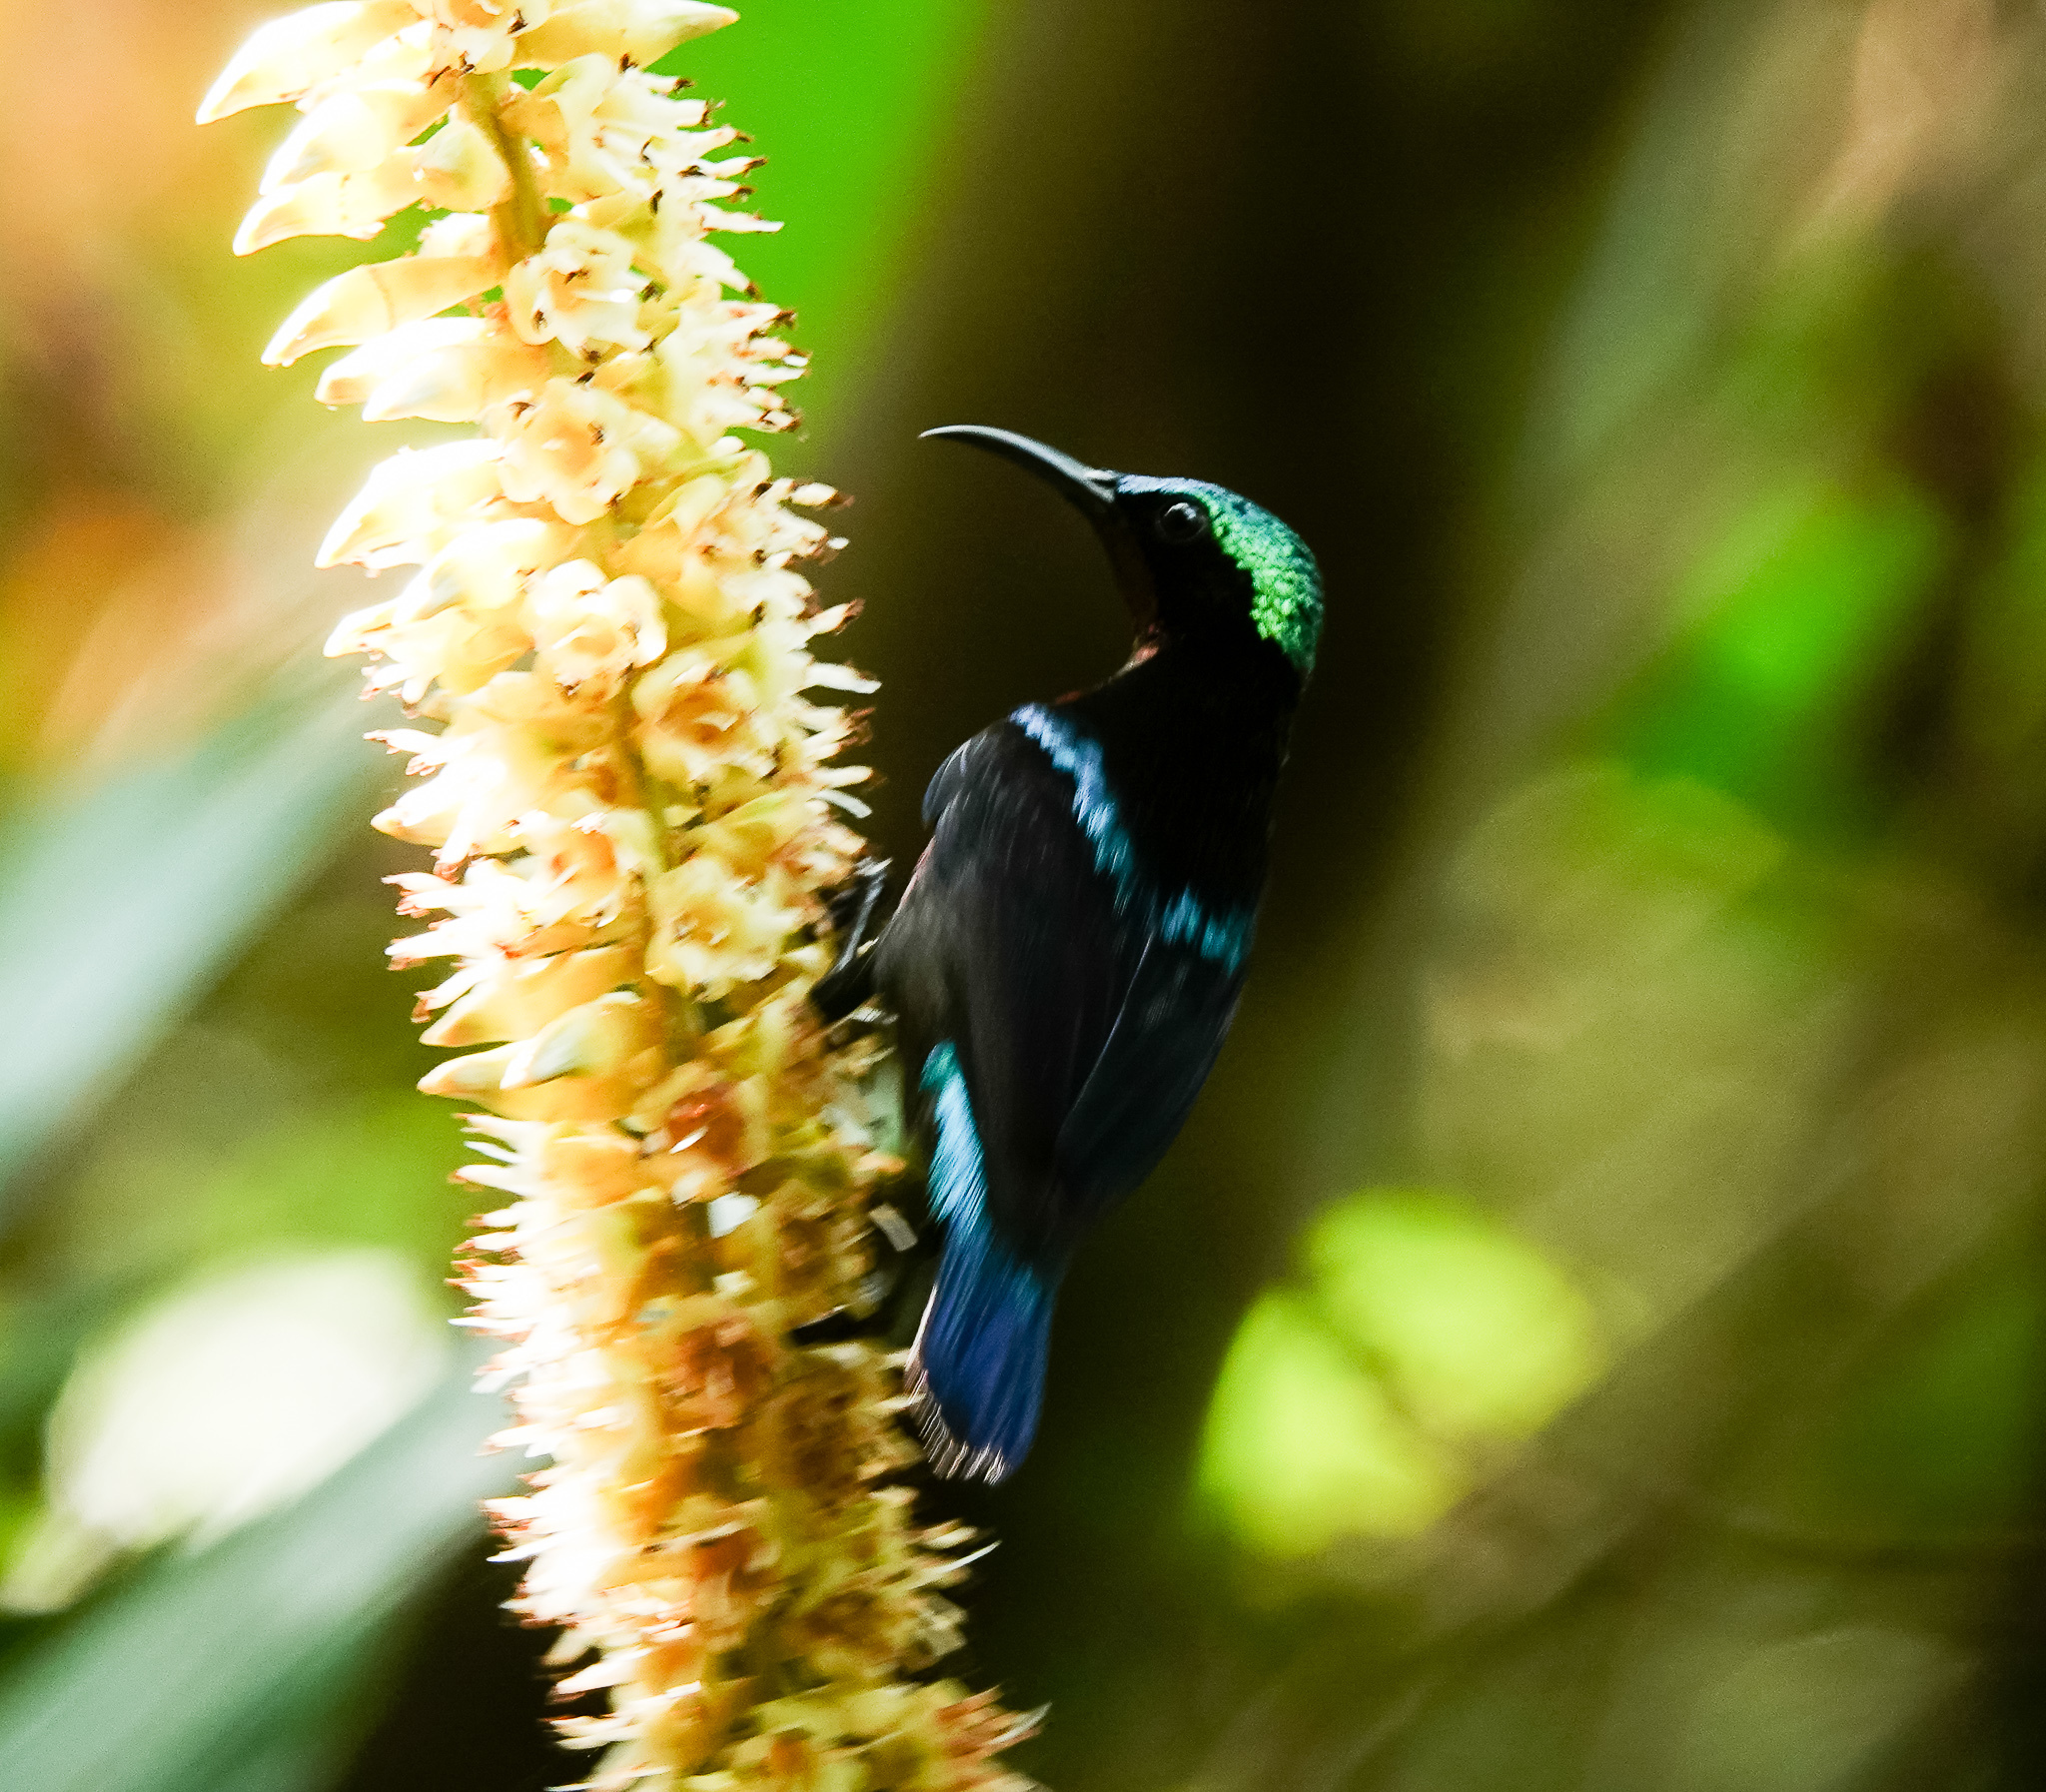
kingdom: Animalia
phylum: Chordata
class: Aves
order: Passeriformes
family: Nectariniidae
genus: Leptocoma
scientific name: Leptocoma brasiliana
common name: Van hasselt's sunbird
